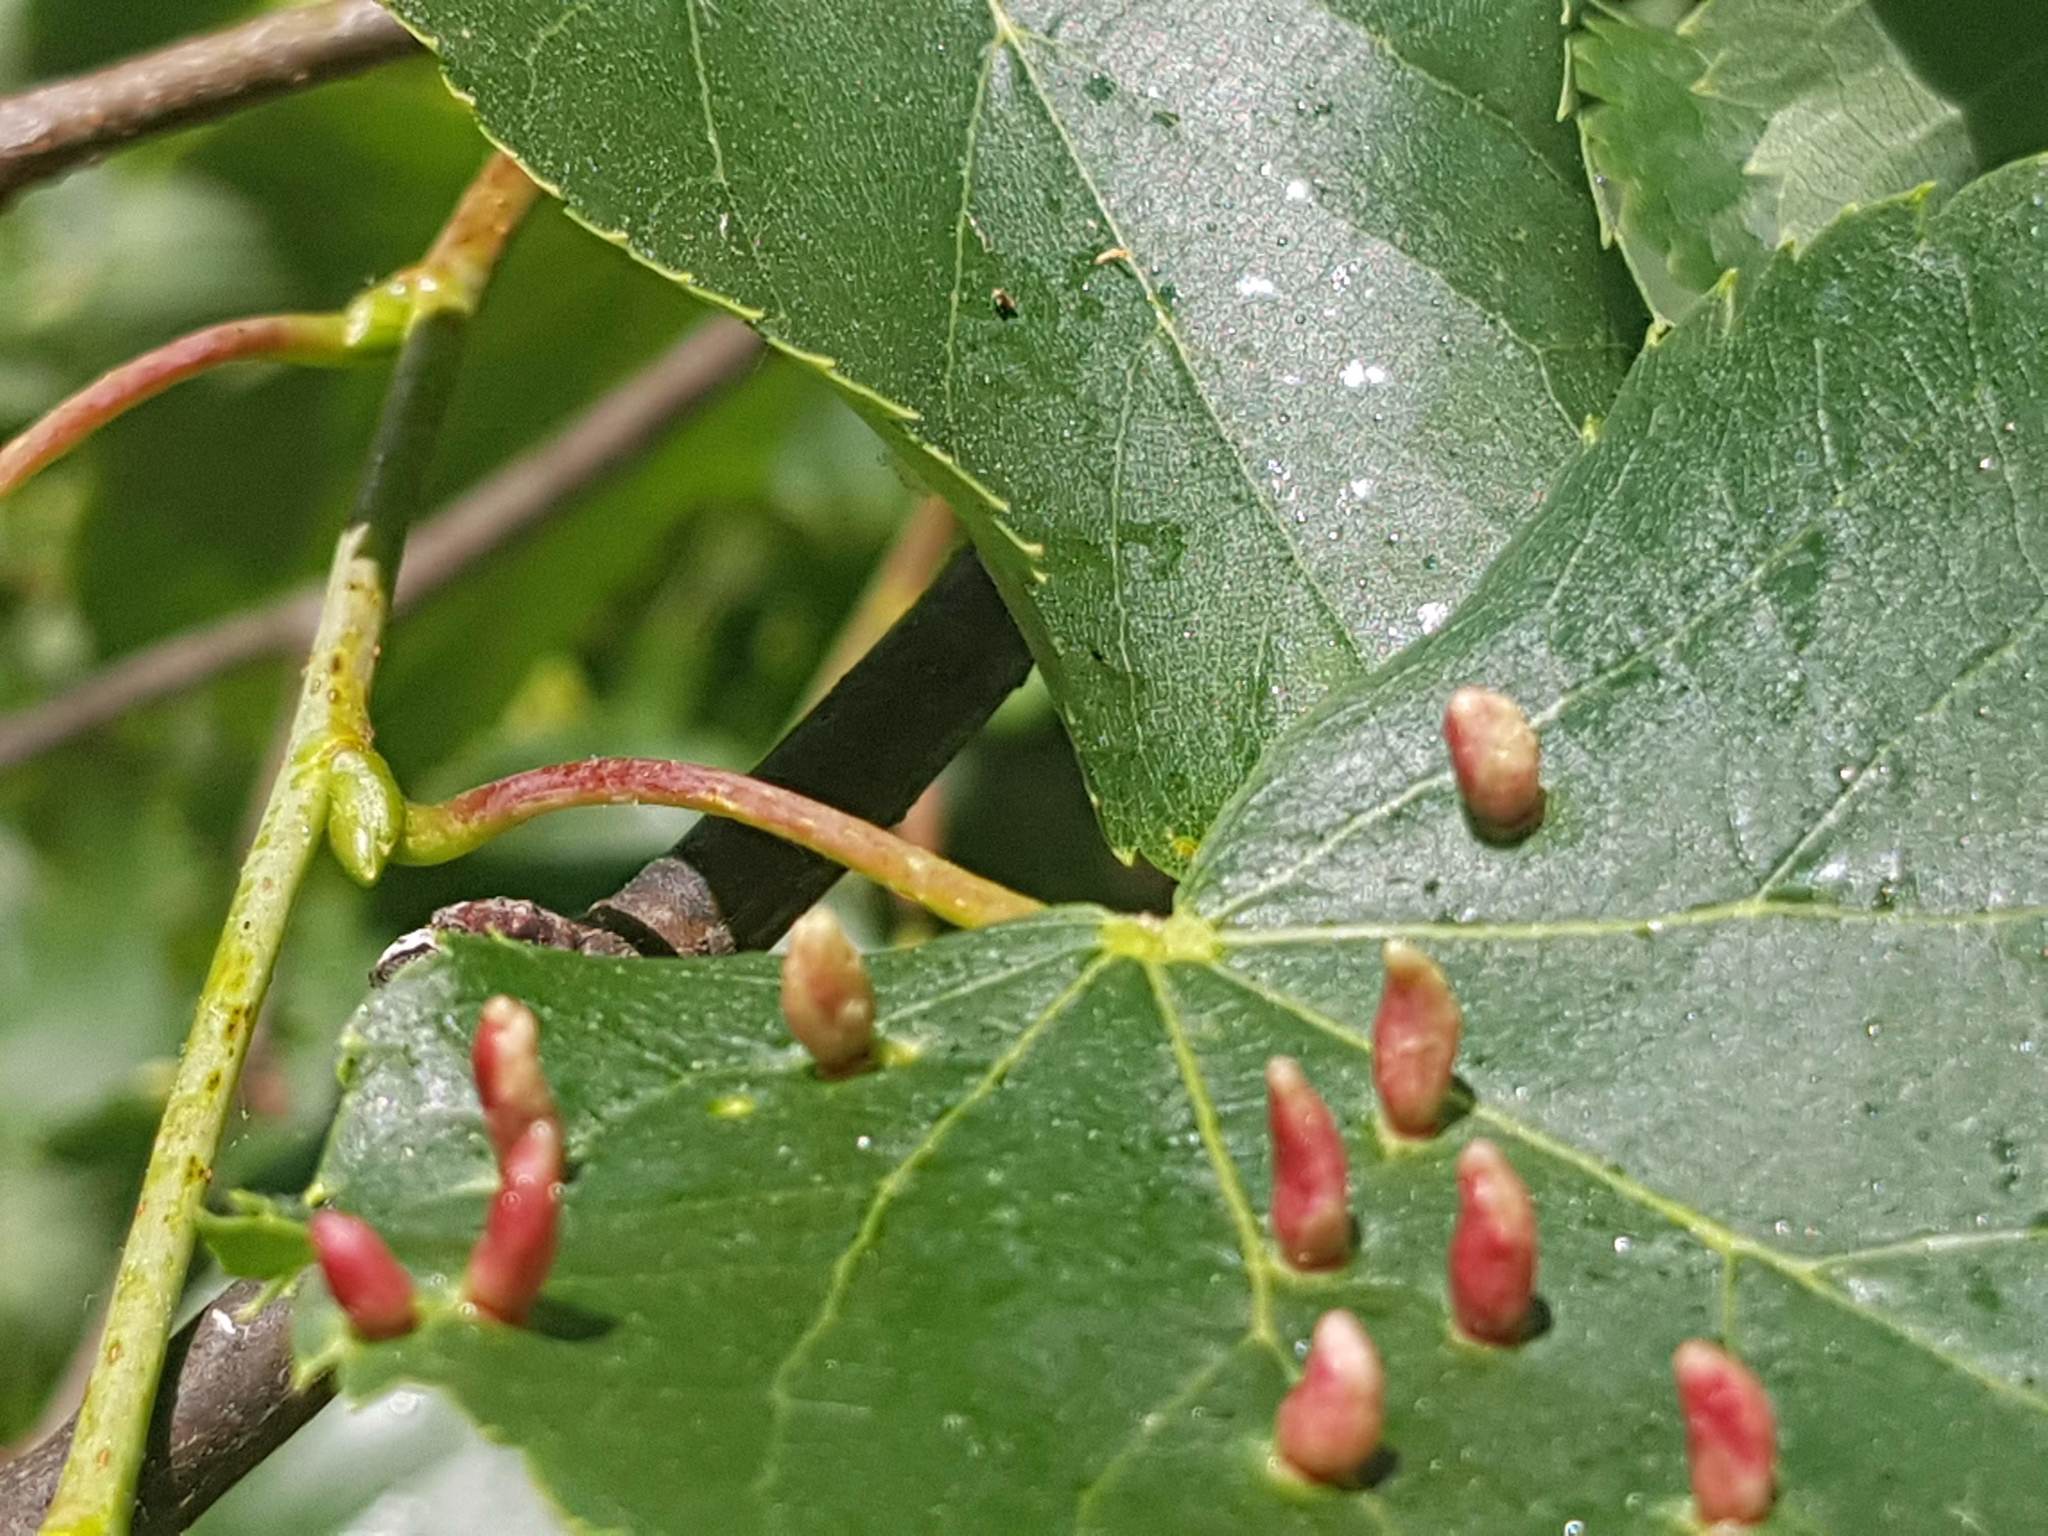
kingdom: Animalia
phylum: Arthropoda
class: Arachnida
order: Trombidiformes
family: Eriophyidae
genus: Eriophyes
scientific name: Eriophyes tiliae
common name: Red nail gall mite
